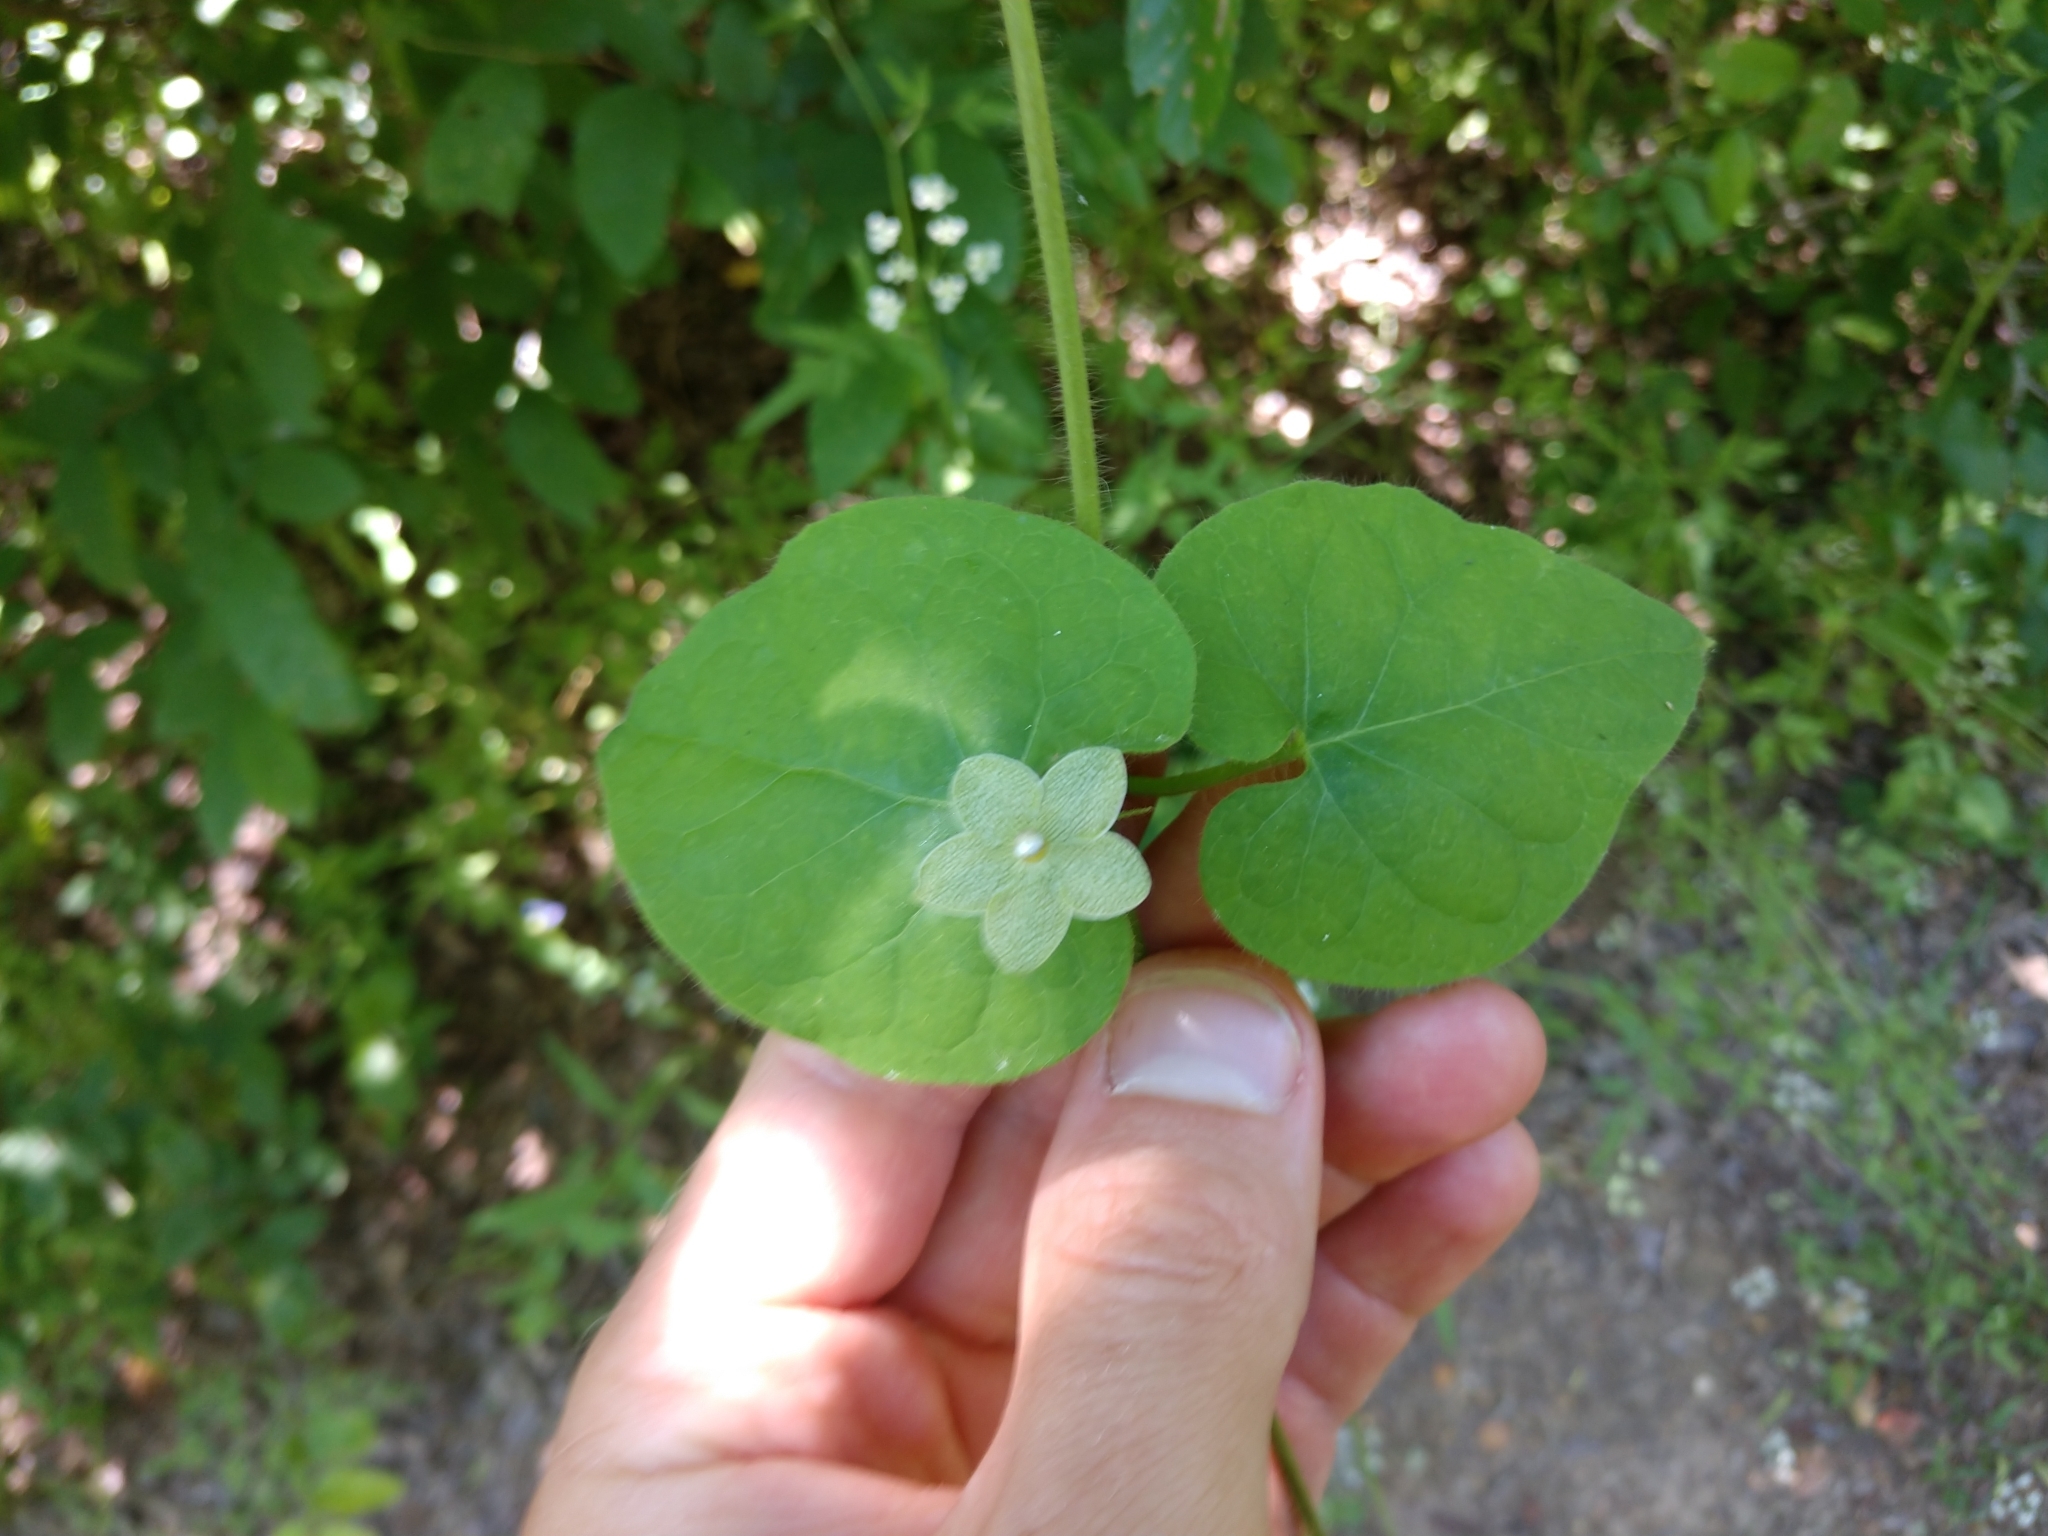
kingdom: Plantae
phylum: Tracheophyta
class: Magnoliopsida
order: Gentianales
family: Apocynaceae
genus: Dictyanthus
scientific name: Dictyanthus reticulatus
